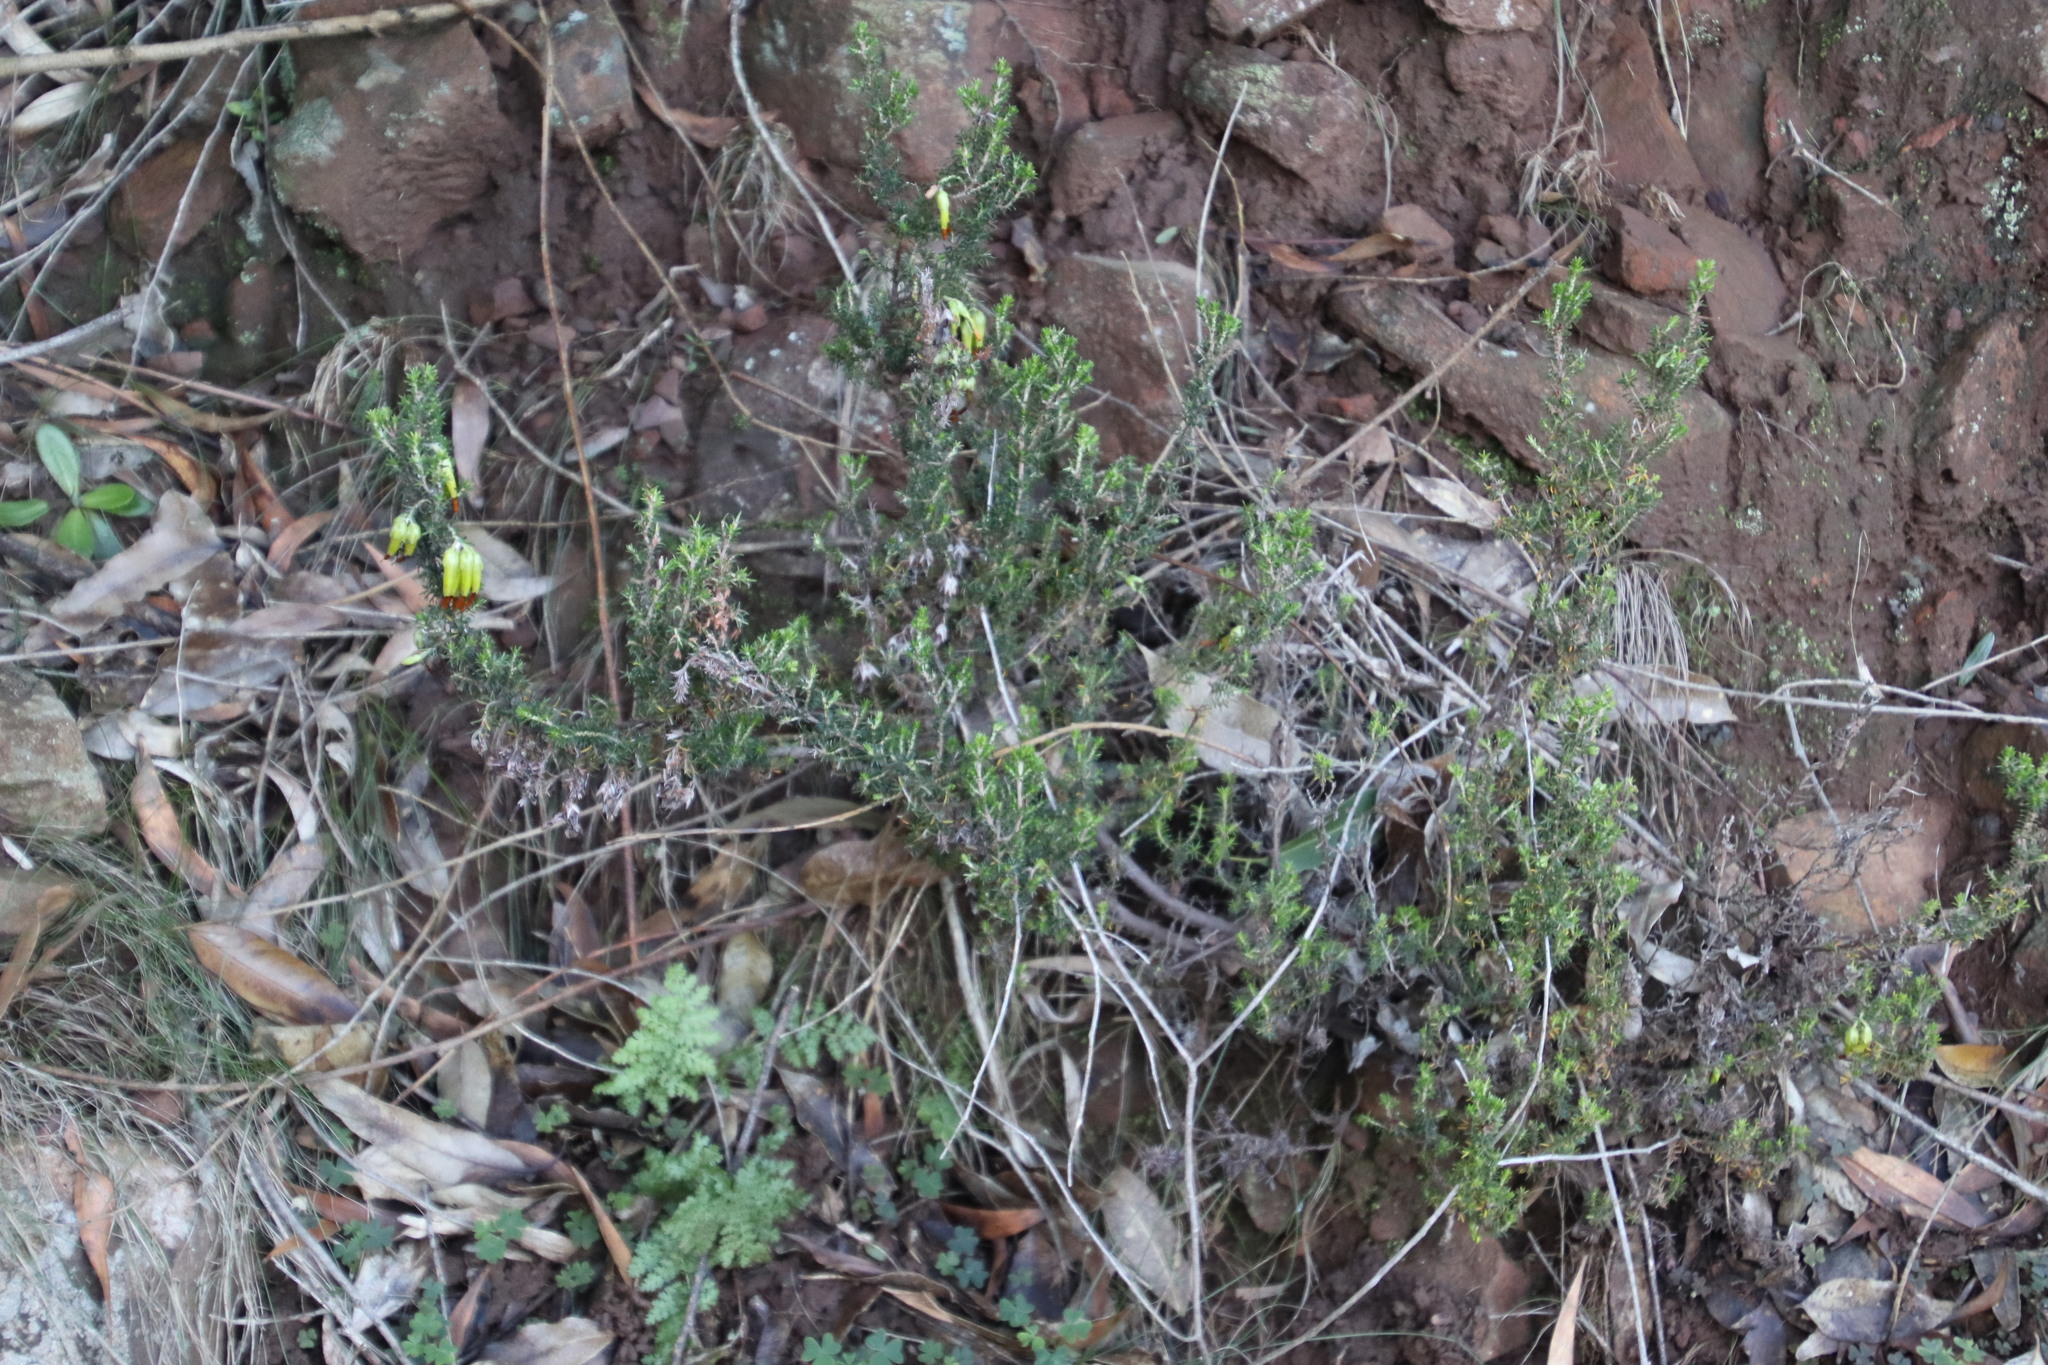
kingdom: Plantae
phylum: Tracheophyta
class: Magnoliopsida
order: Ericales
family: Ericaceae
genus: Erica
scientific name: Erica coccinea
